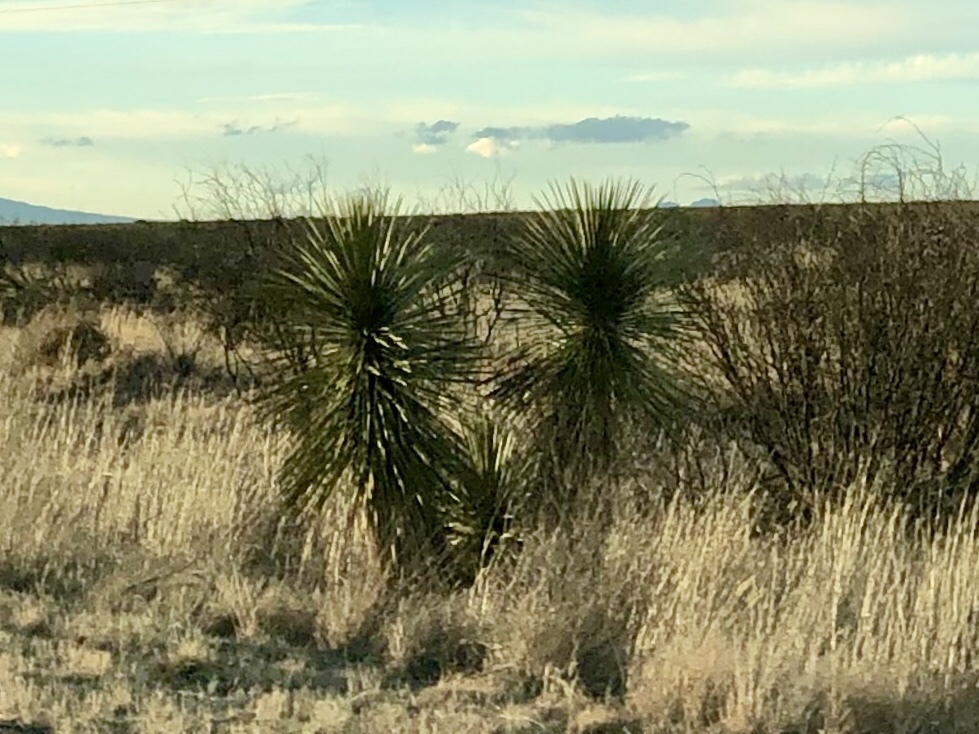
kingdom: Plantae
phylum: Tracheophyta
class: Liliopsida
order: Asparagales
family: Asparagaceae
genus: Yucca
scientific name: Yucca elata
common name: Palmella
